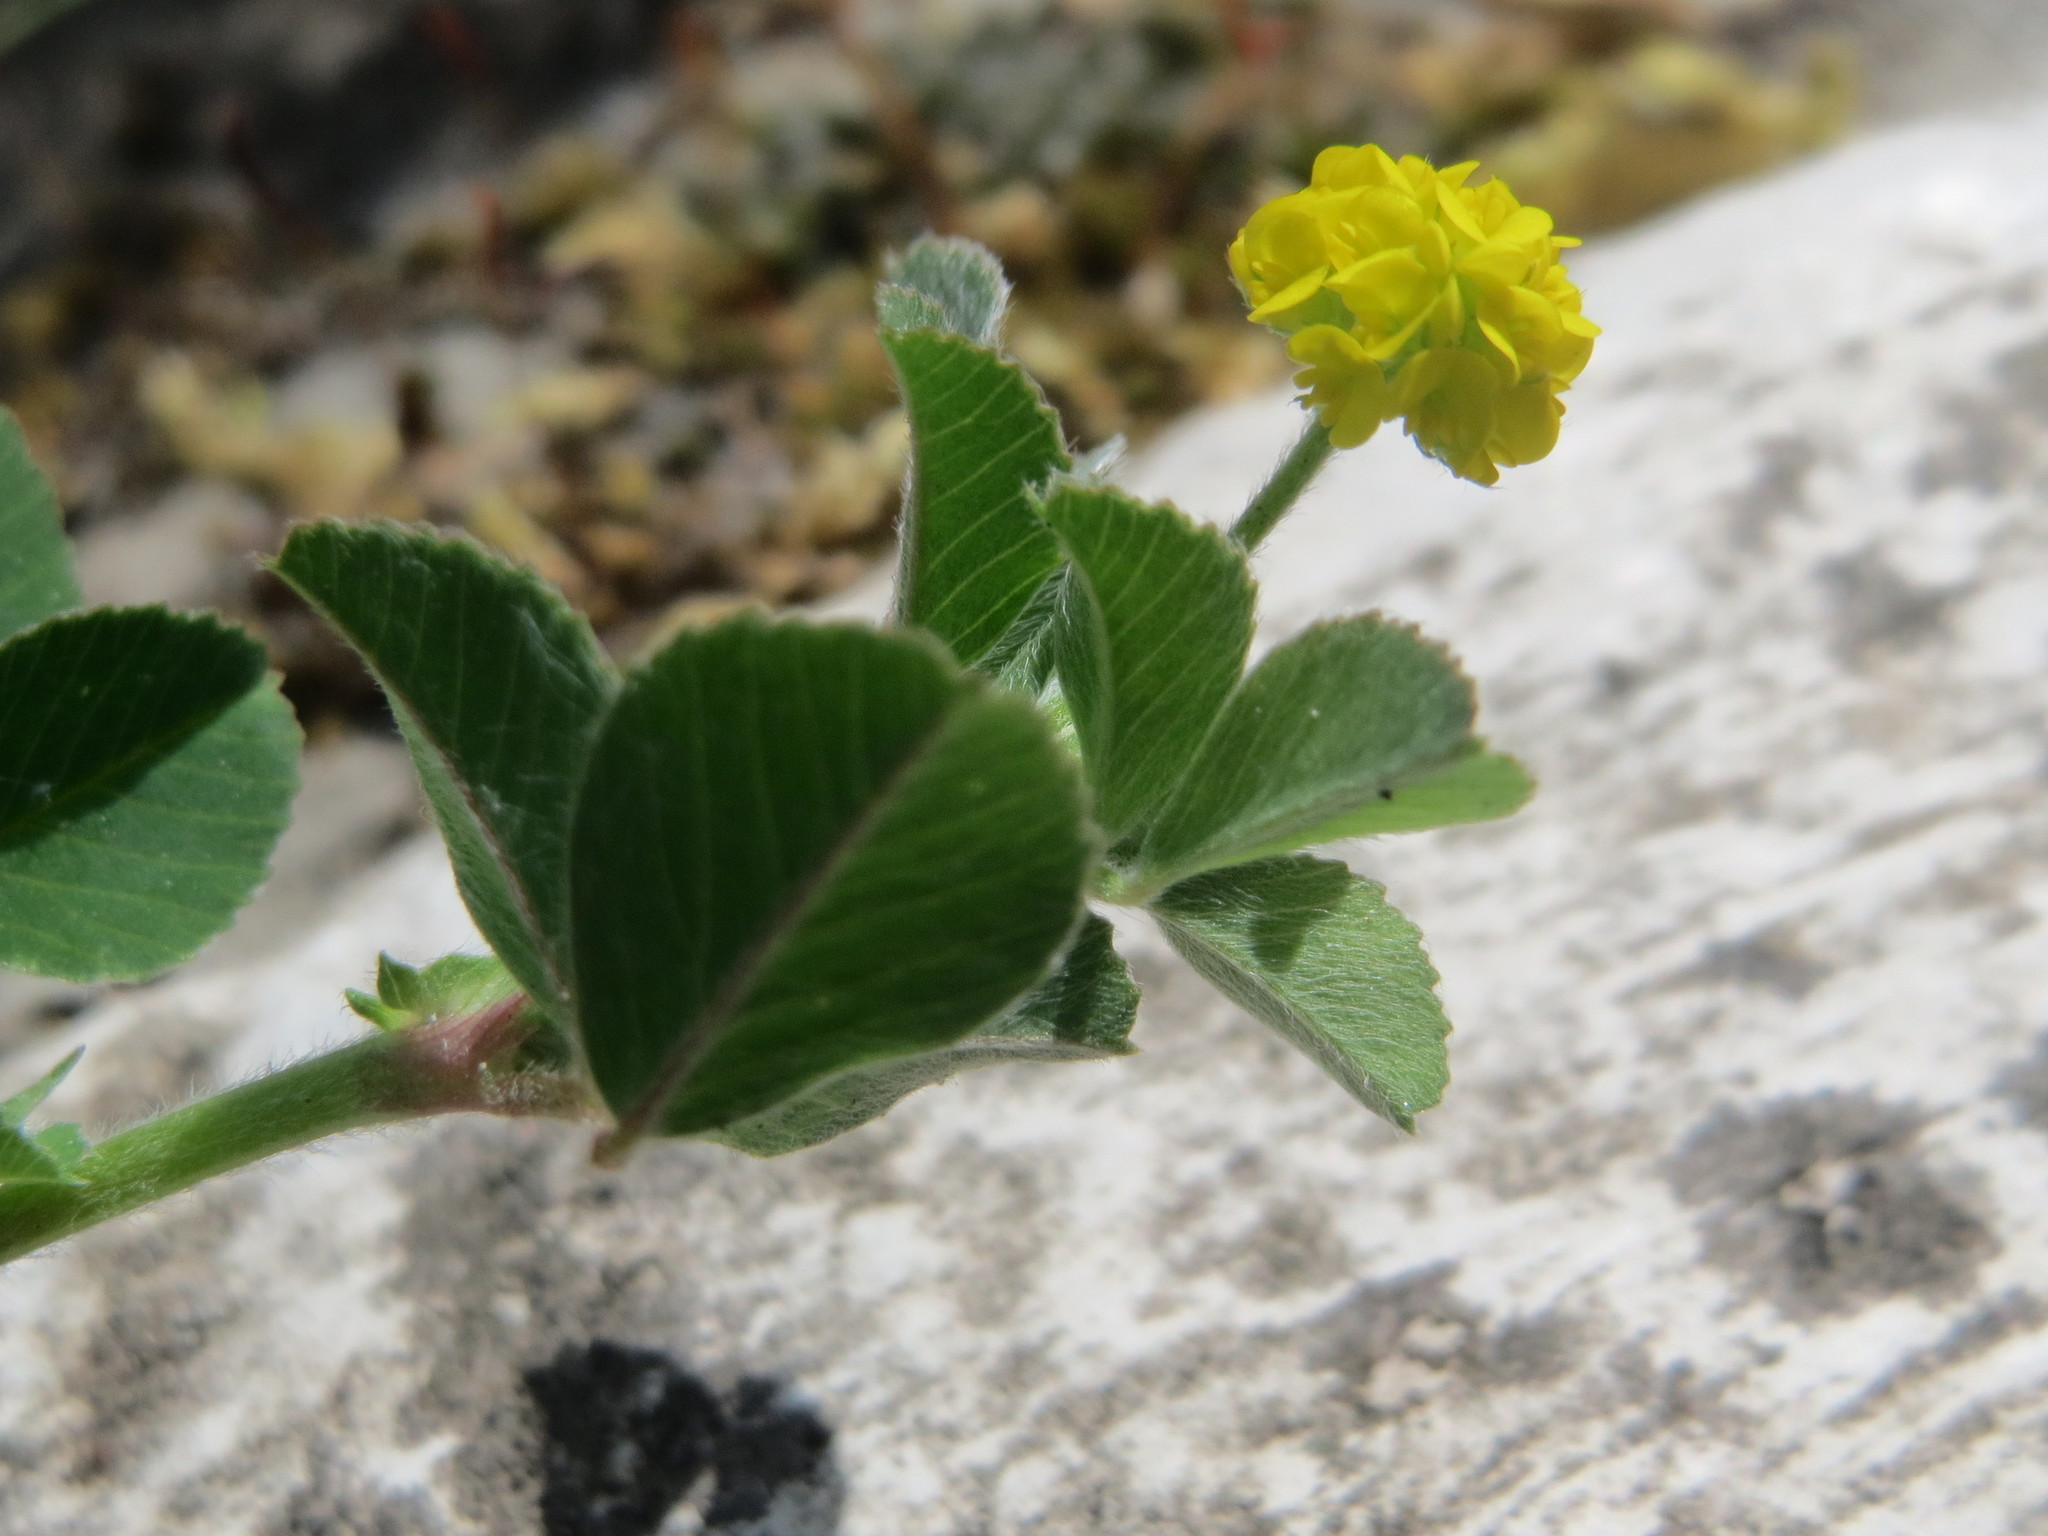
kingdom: Plantae
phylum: Tracheophyta
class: Magnoliopsida
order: Fabales
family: Fabaceae
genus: Medicago
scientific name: Medicago lupulina
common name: Black medick
